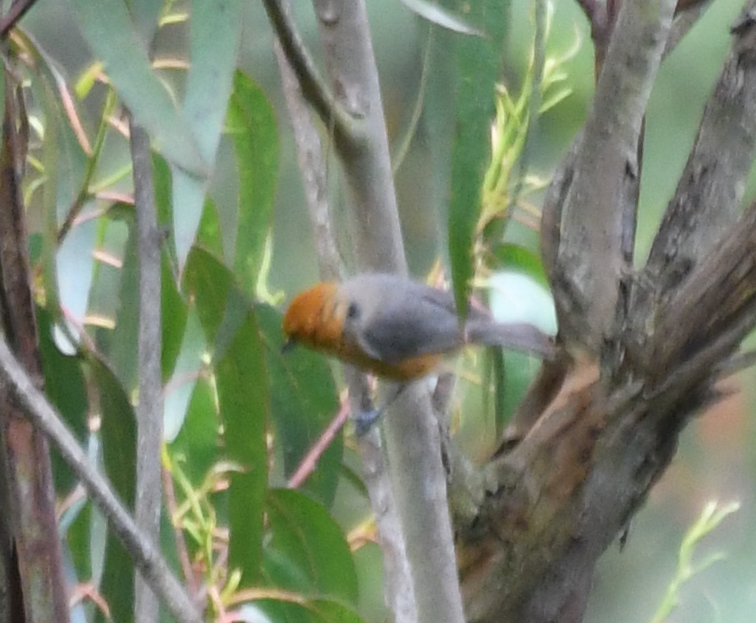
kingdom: Animalia
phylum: Chordata
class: Aves
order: Passeriformes
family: Thraupidae
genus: Thlypopsis
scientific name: Thlypopsis ornata
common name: Rufous-chested tanager
